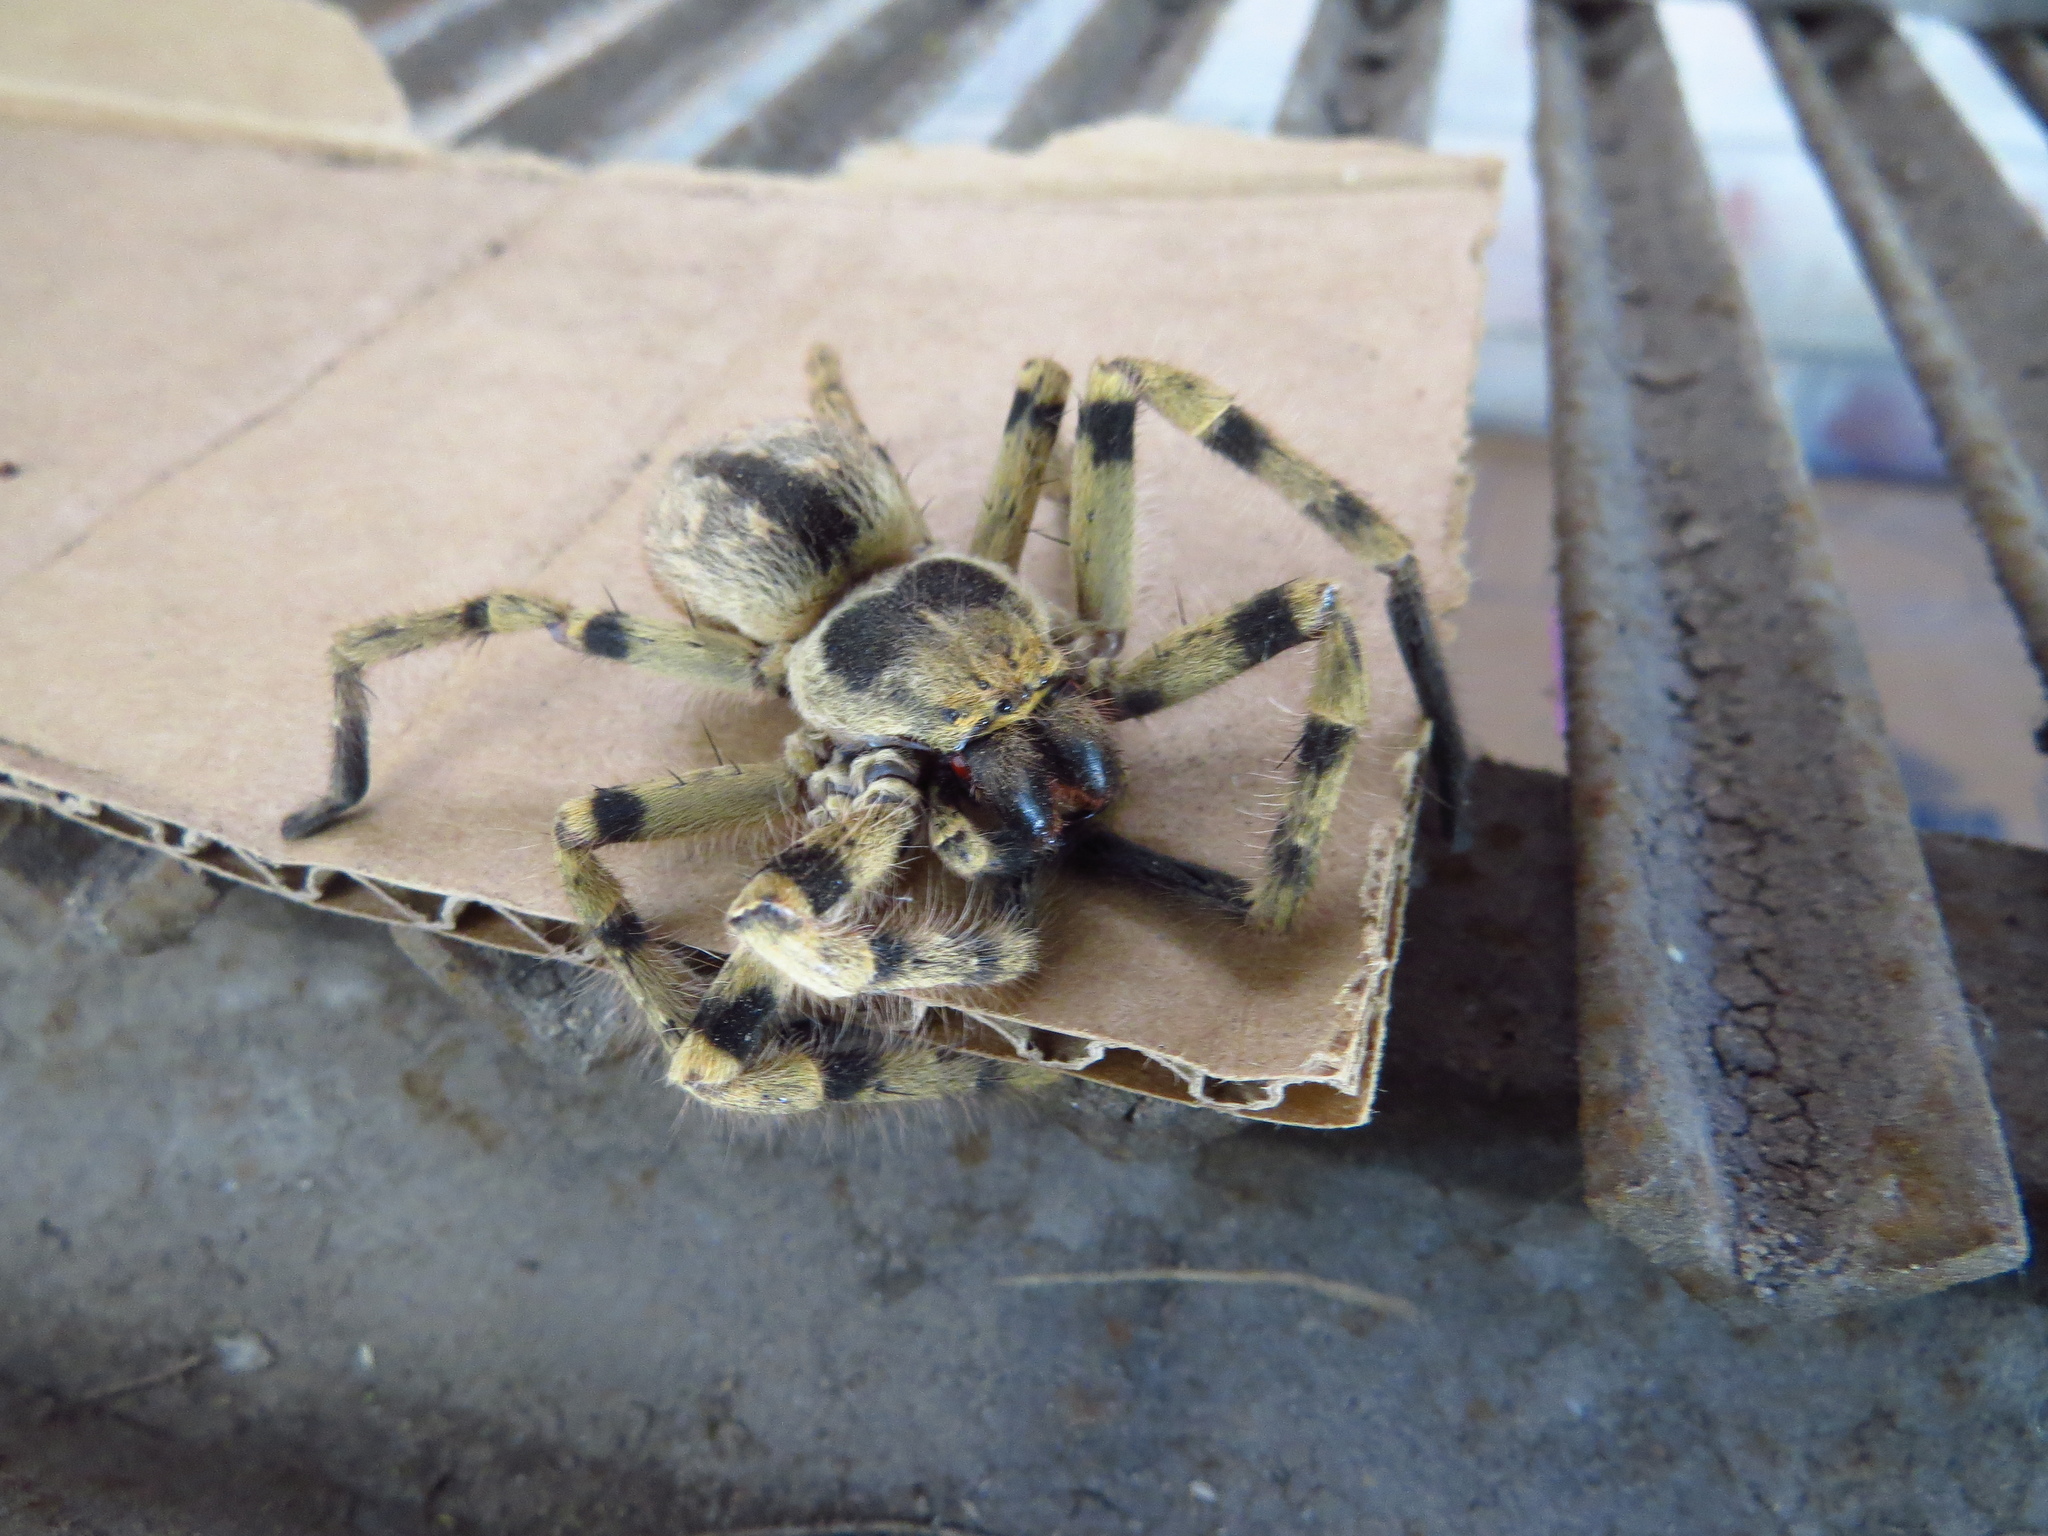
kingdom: Animalia
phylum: Arthropoda
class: Arachnida
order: Araneae
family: Sparassidae
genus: Polybetes
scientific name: Polybetes pythagoricus
